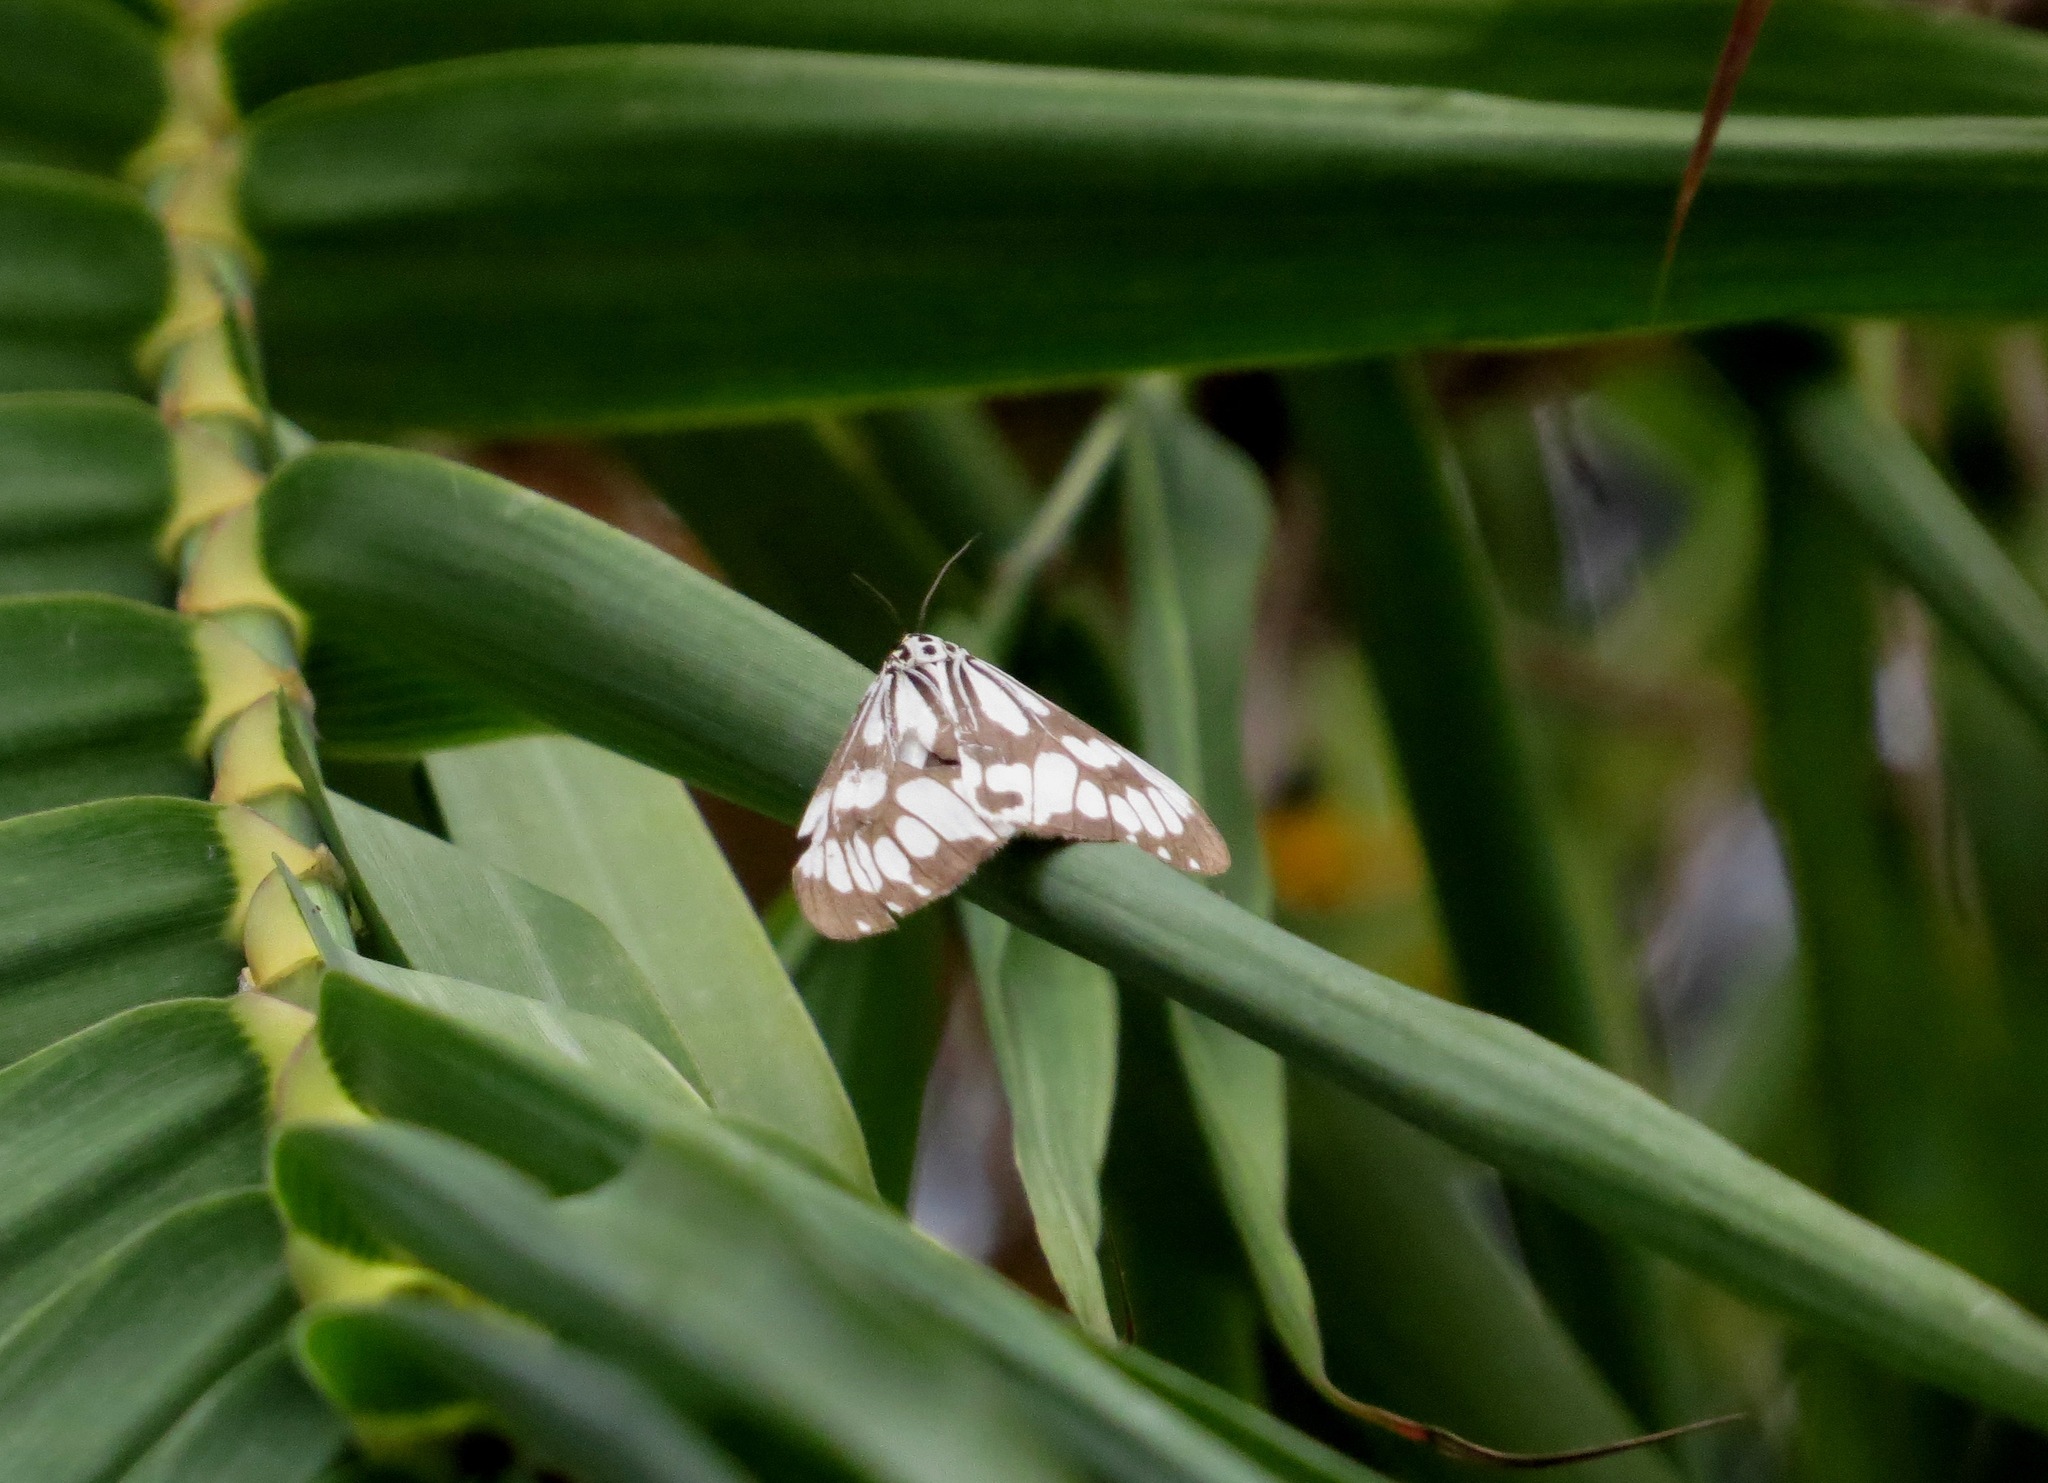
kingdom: Animalia
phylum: Arthropoda
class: Insecta
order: Lepidoptera
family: Erebidae
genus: Nyctemera
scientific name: Nyctemera adversata
